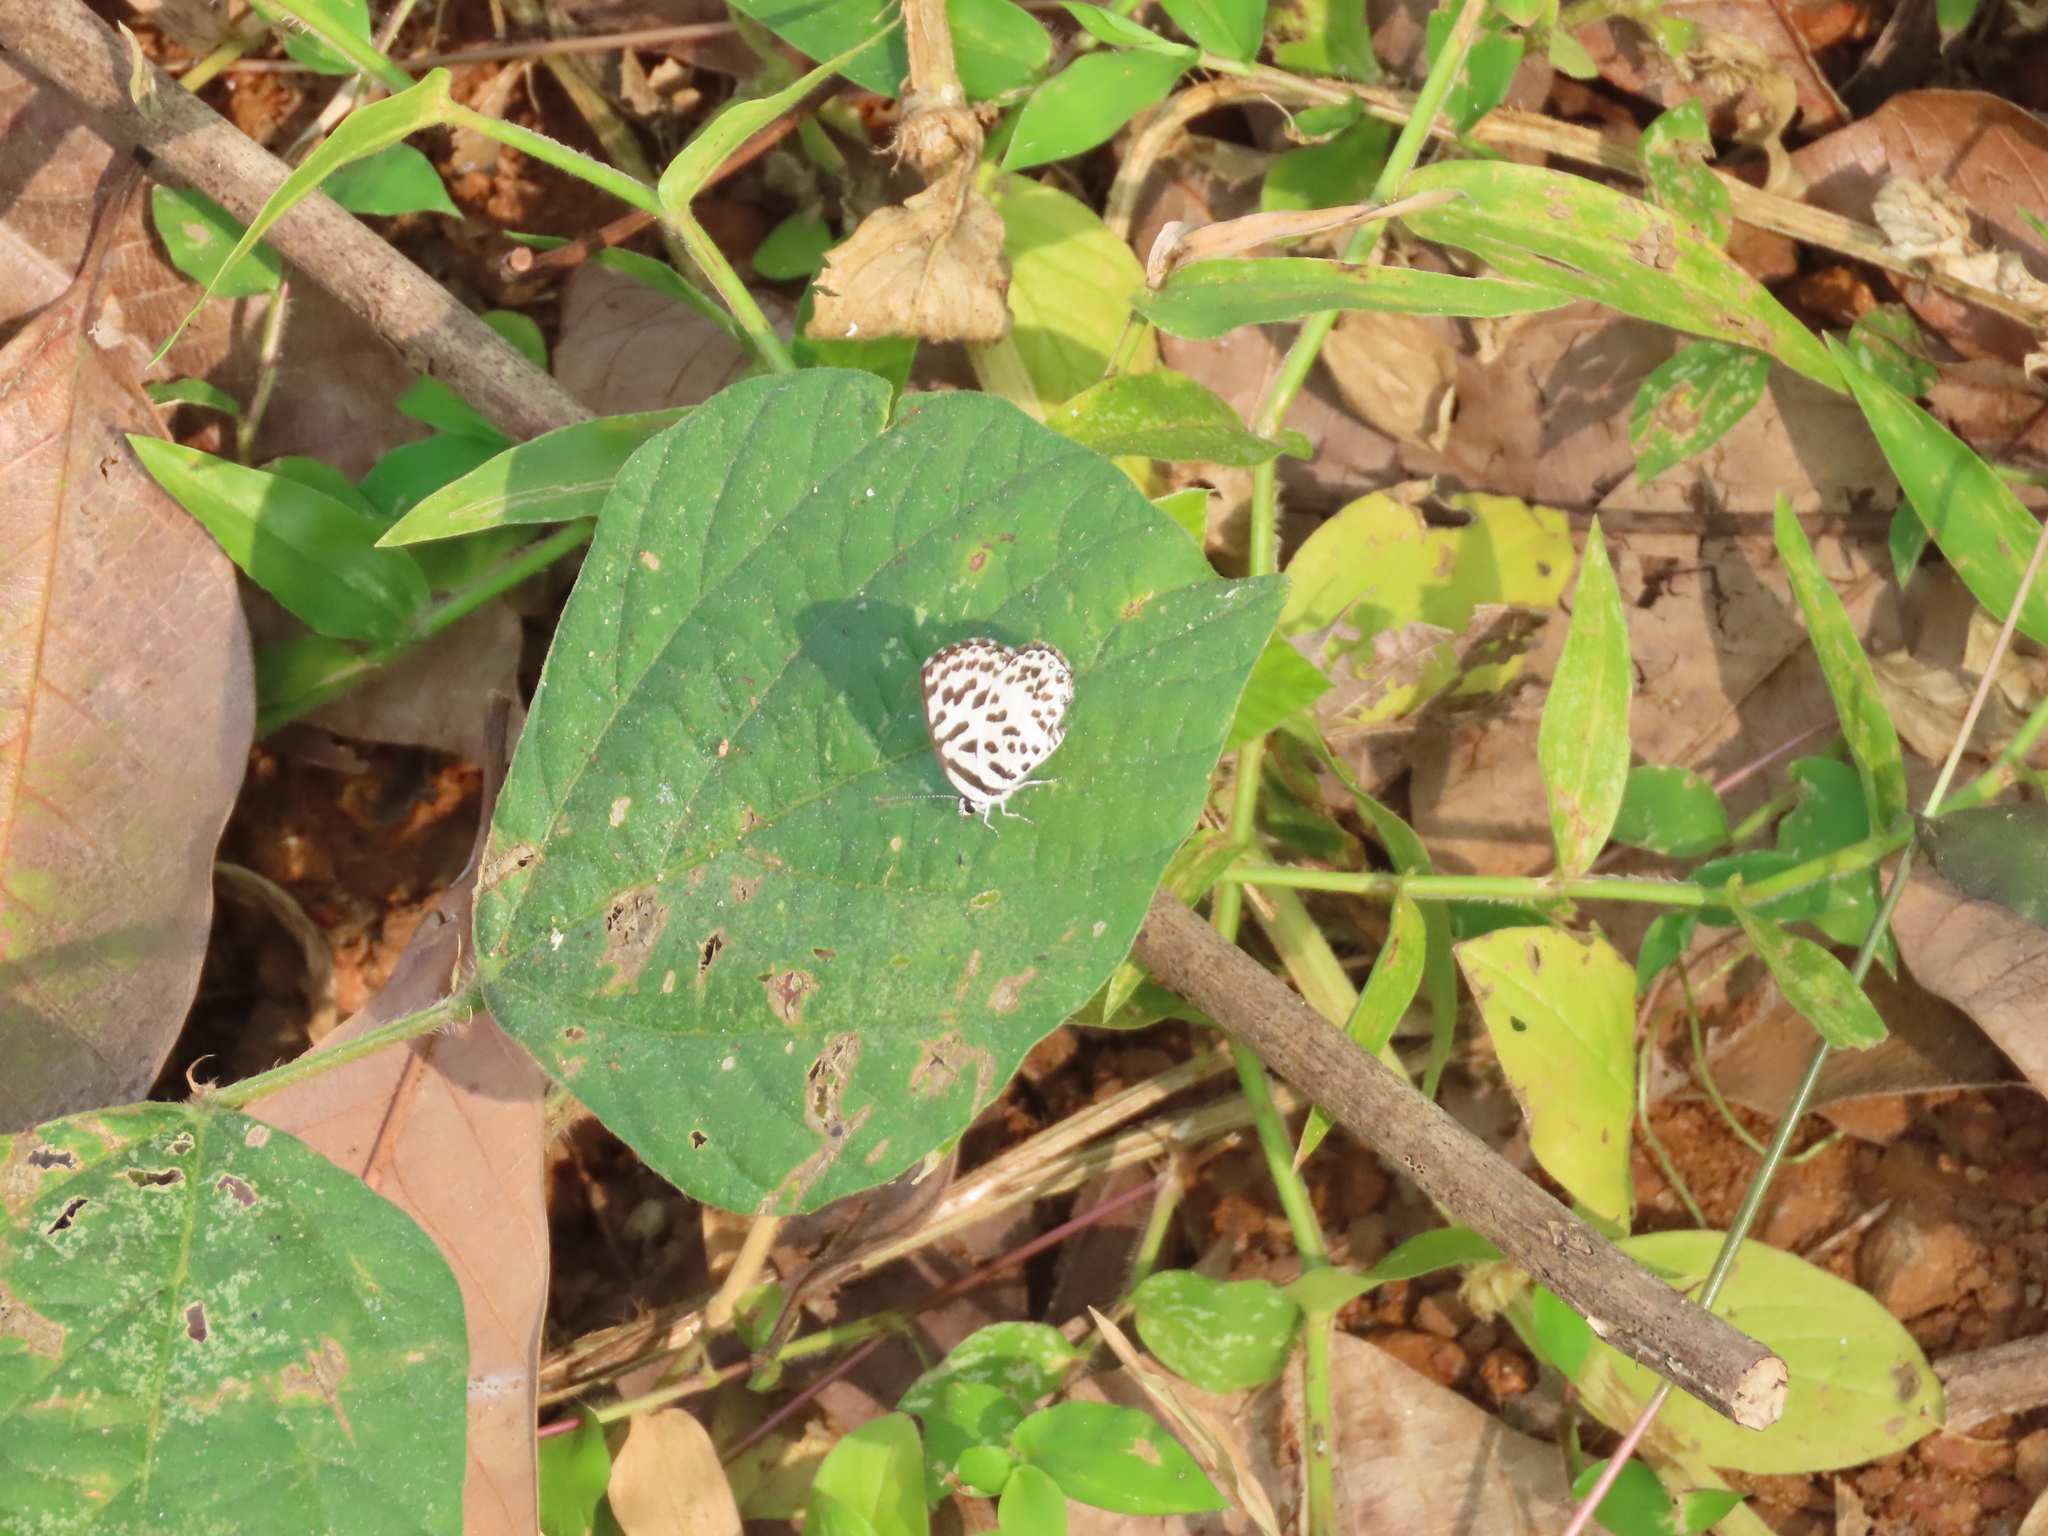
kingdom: Animalia
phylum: Arthropoda
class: Insecta
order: Lepidoptera
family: Lycaenidae
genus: Castalius
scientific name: Castalius rosimon
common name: Common pierrot
